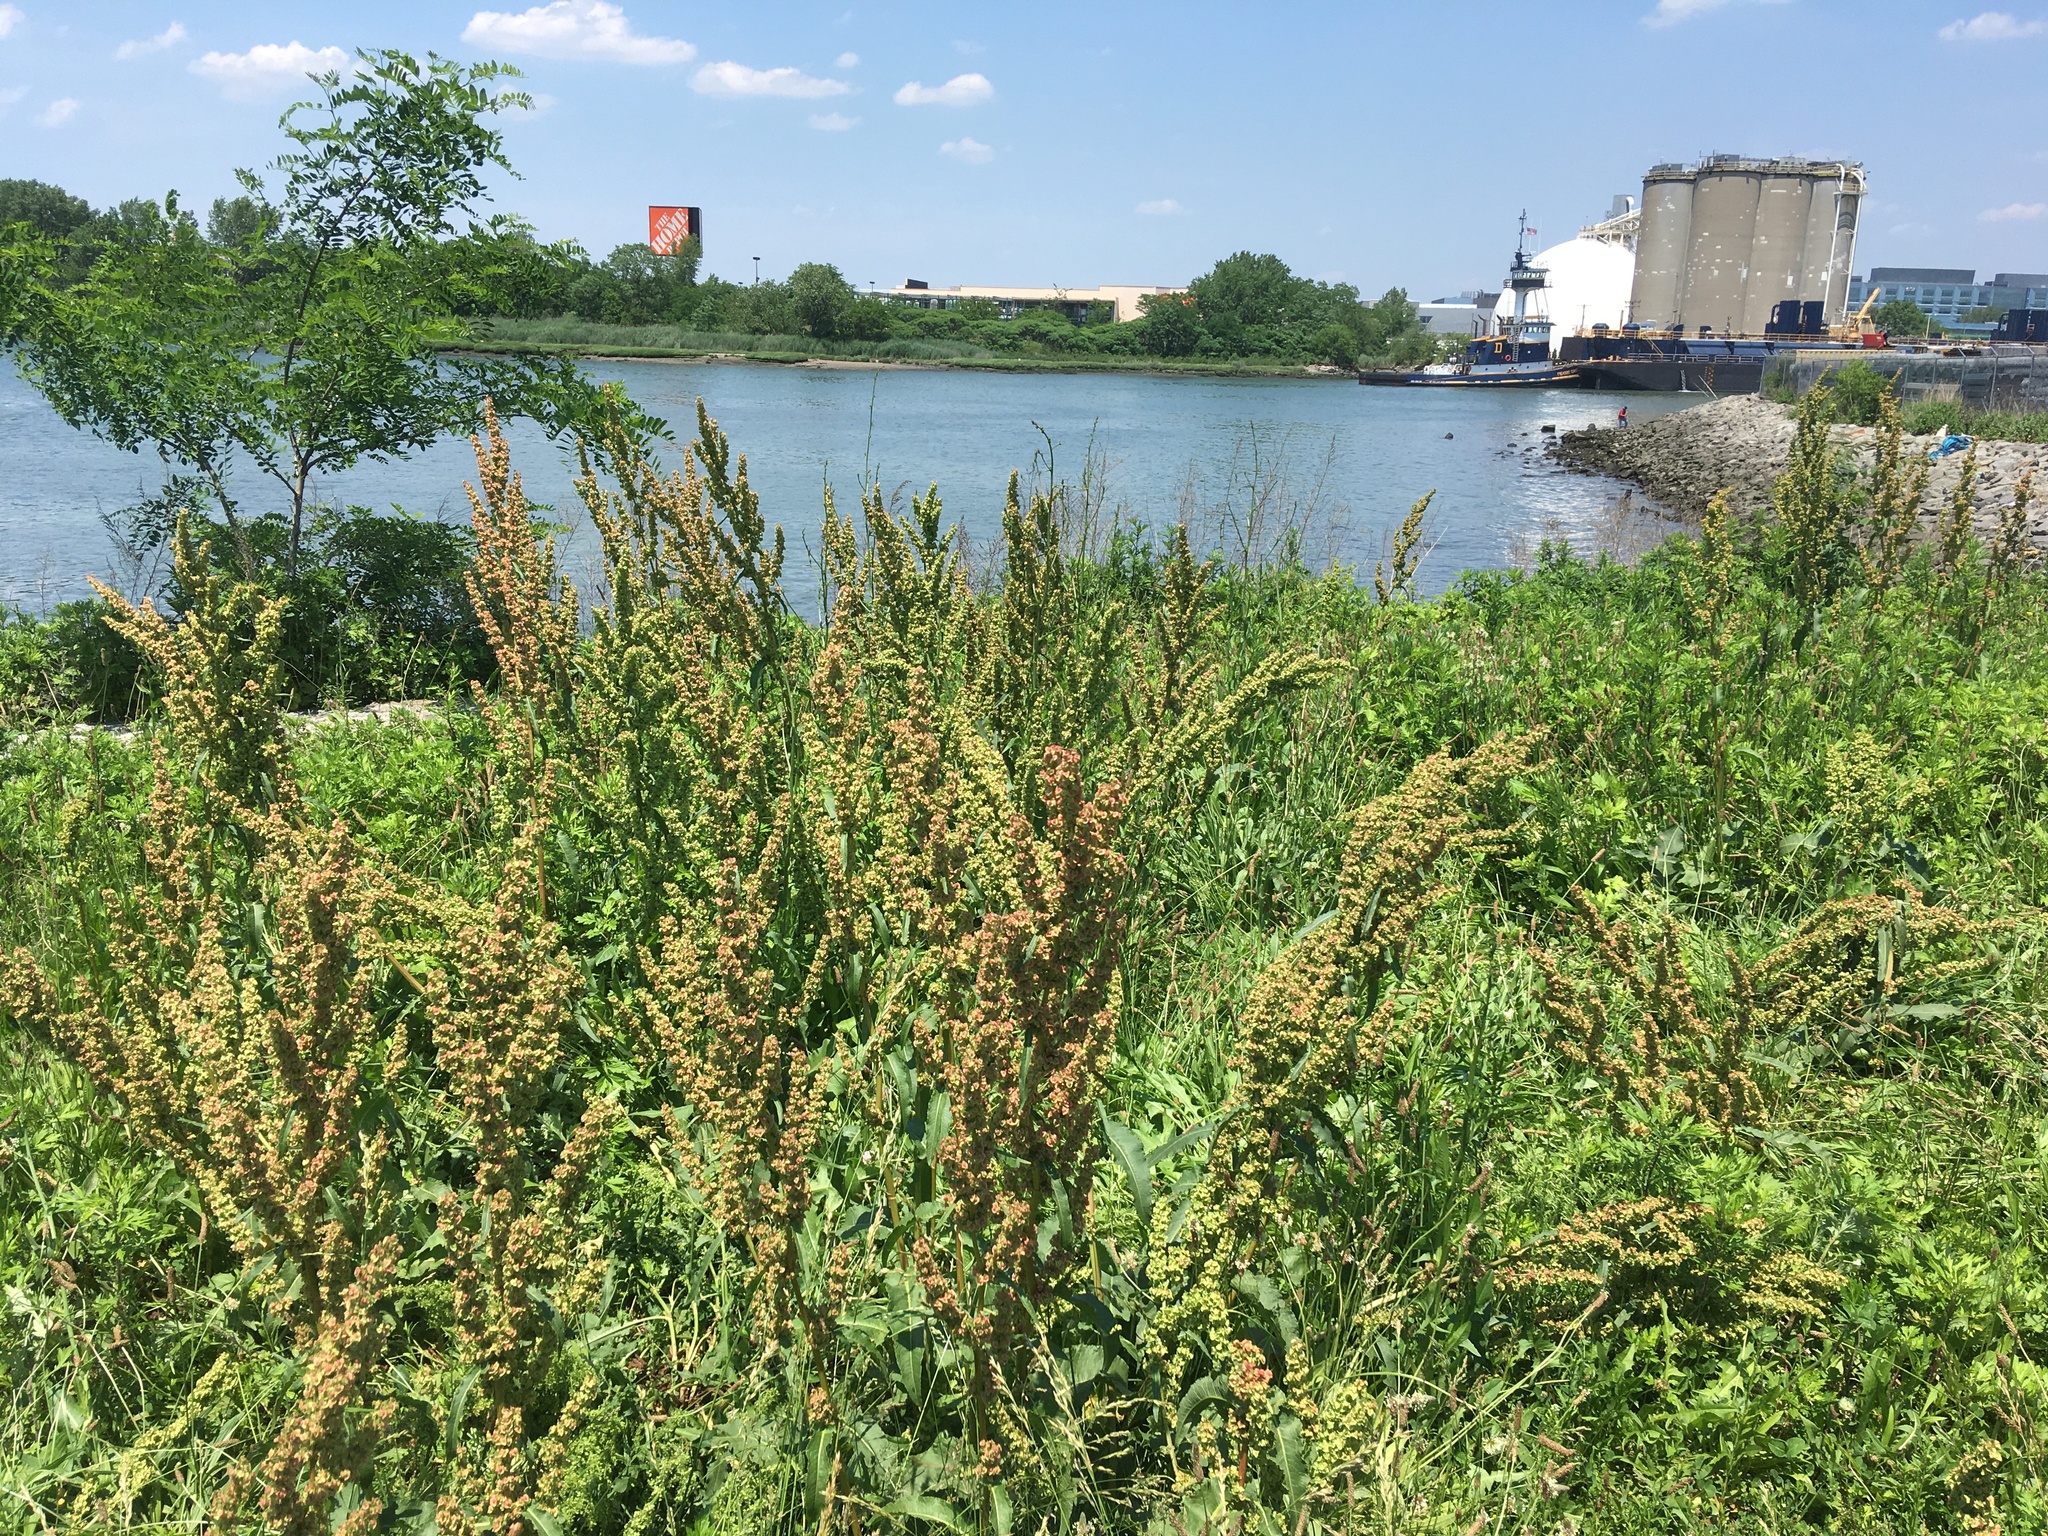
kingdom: Plantae
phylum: Tracheophyta
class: Magnoliopsida
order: Caryophyllales
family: Polygonaceae
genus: Rumex
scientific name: Rumex crispus
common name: Curled dock
